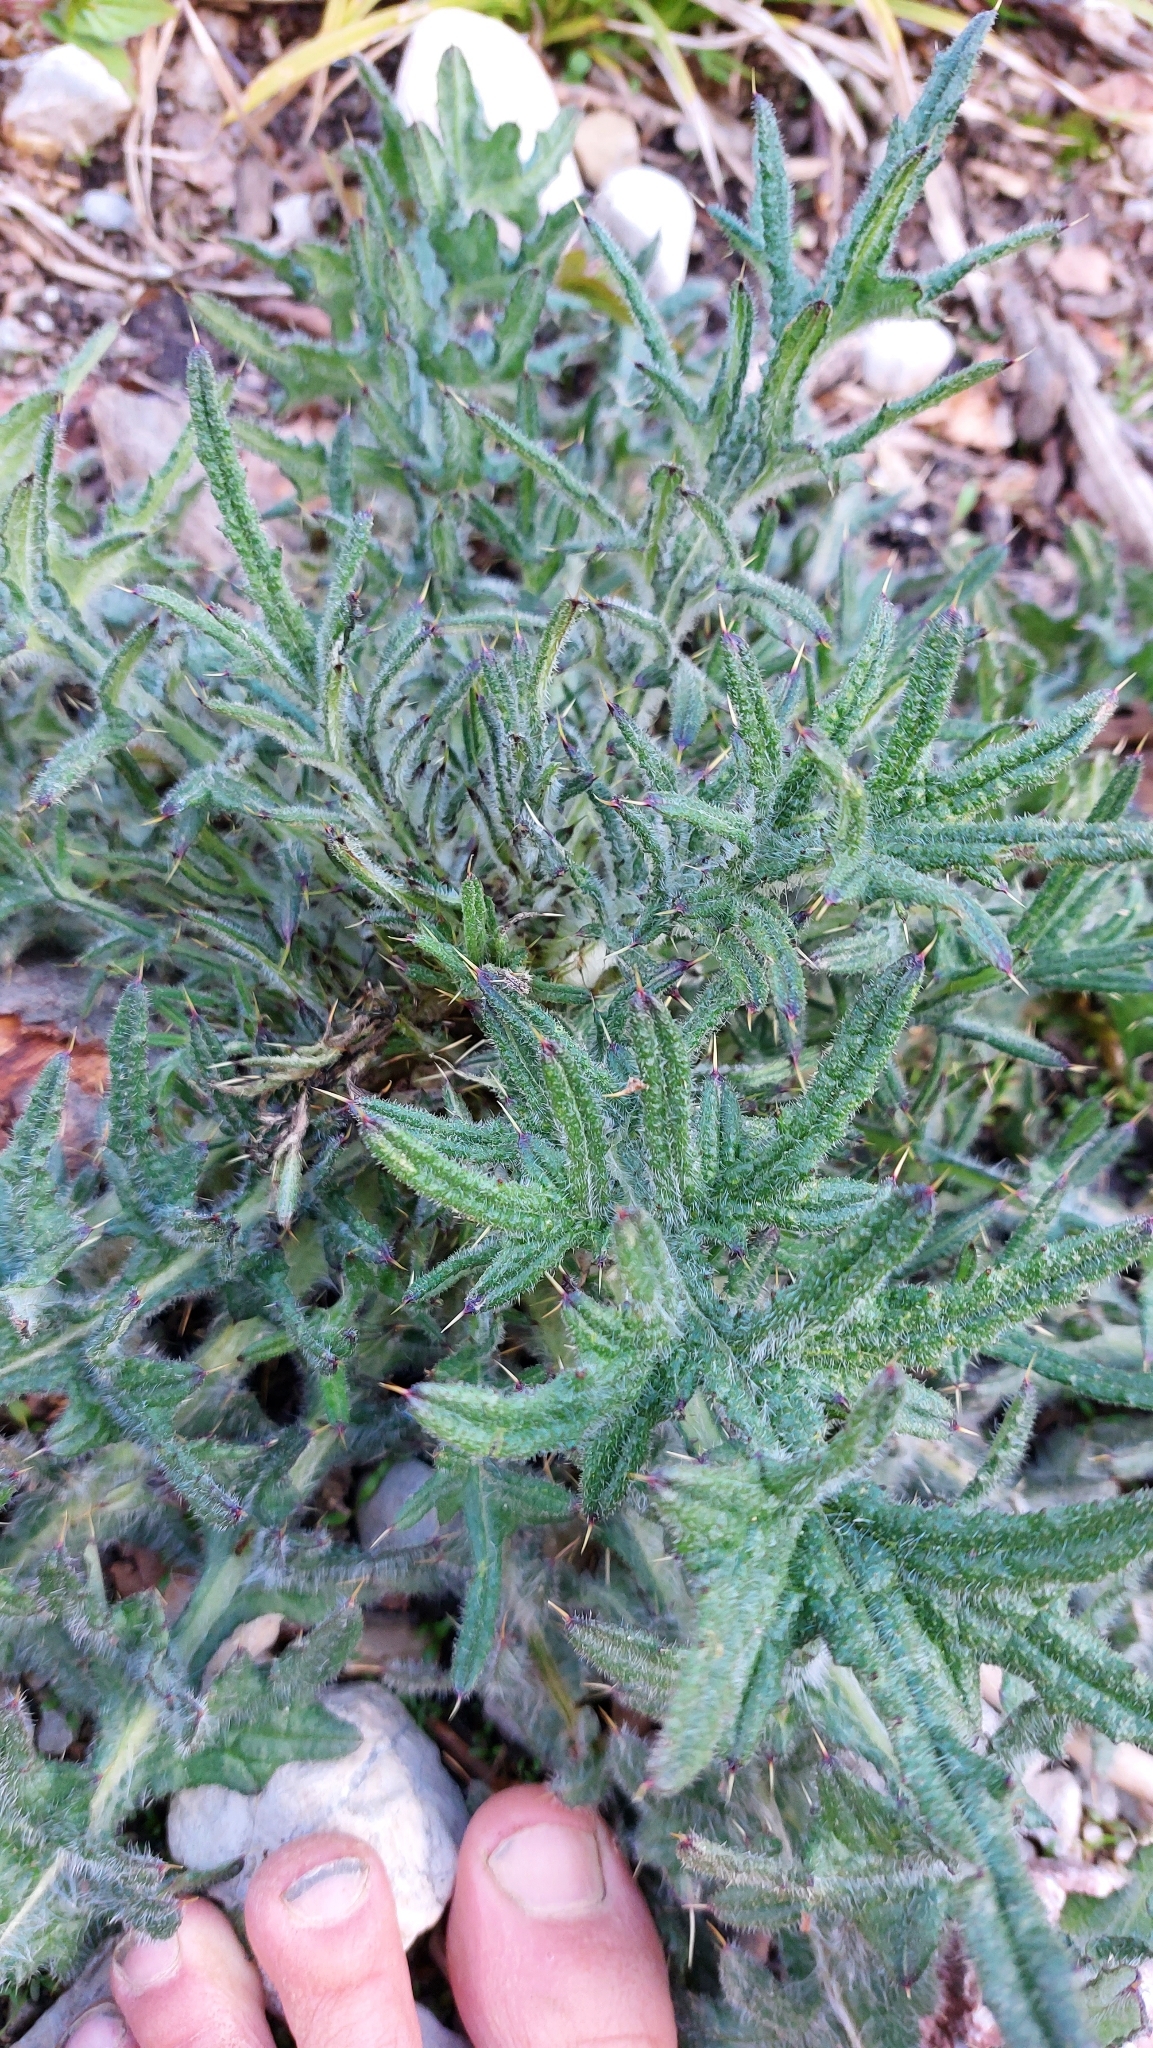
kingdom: Plantae
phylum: Tracheophyta
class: Magnoliopsida
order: Asterales
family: Asteraceae
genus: Cirsium
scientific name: Cirsium vulgare
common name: Bull thistle
